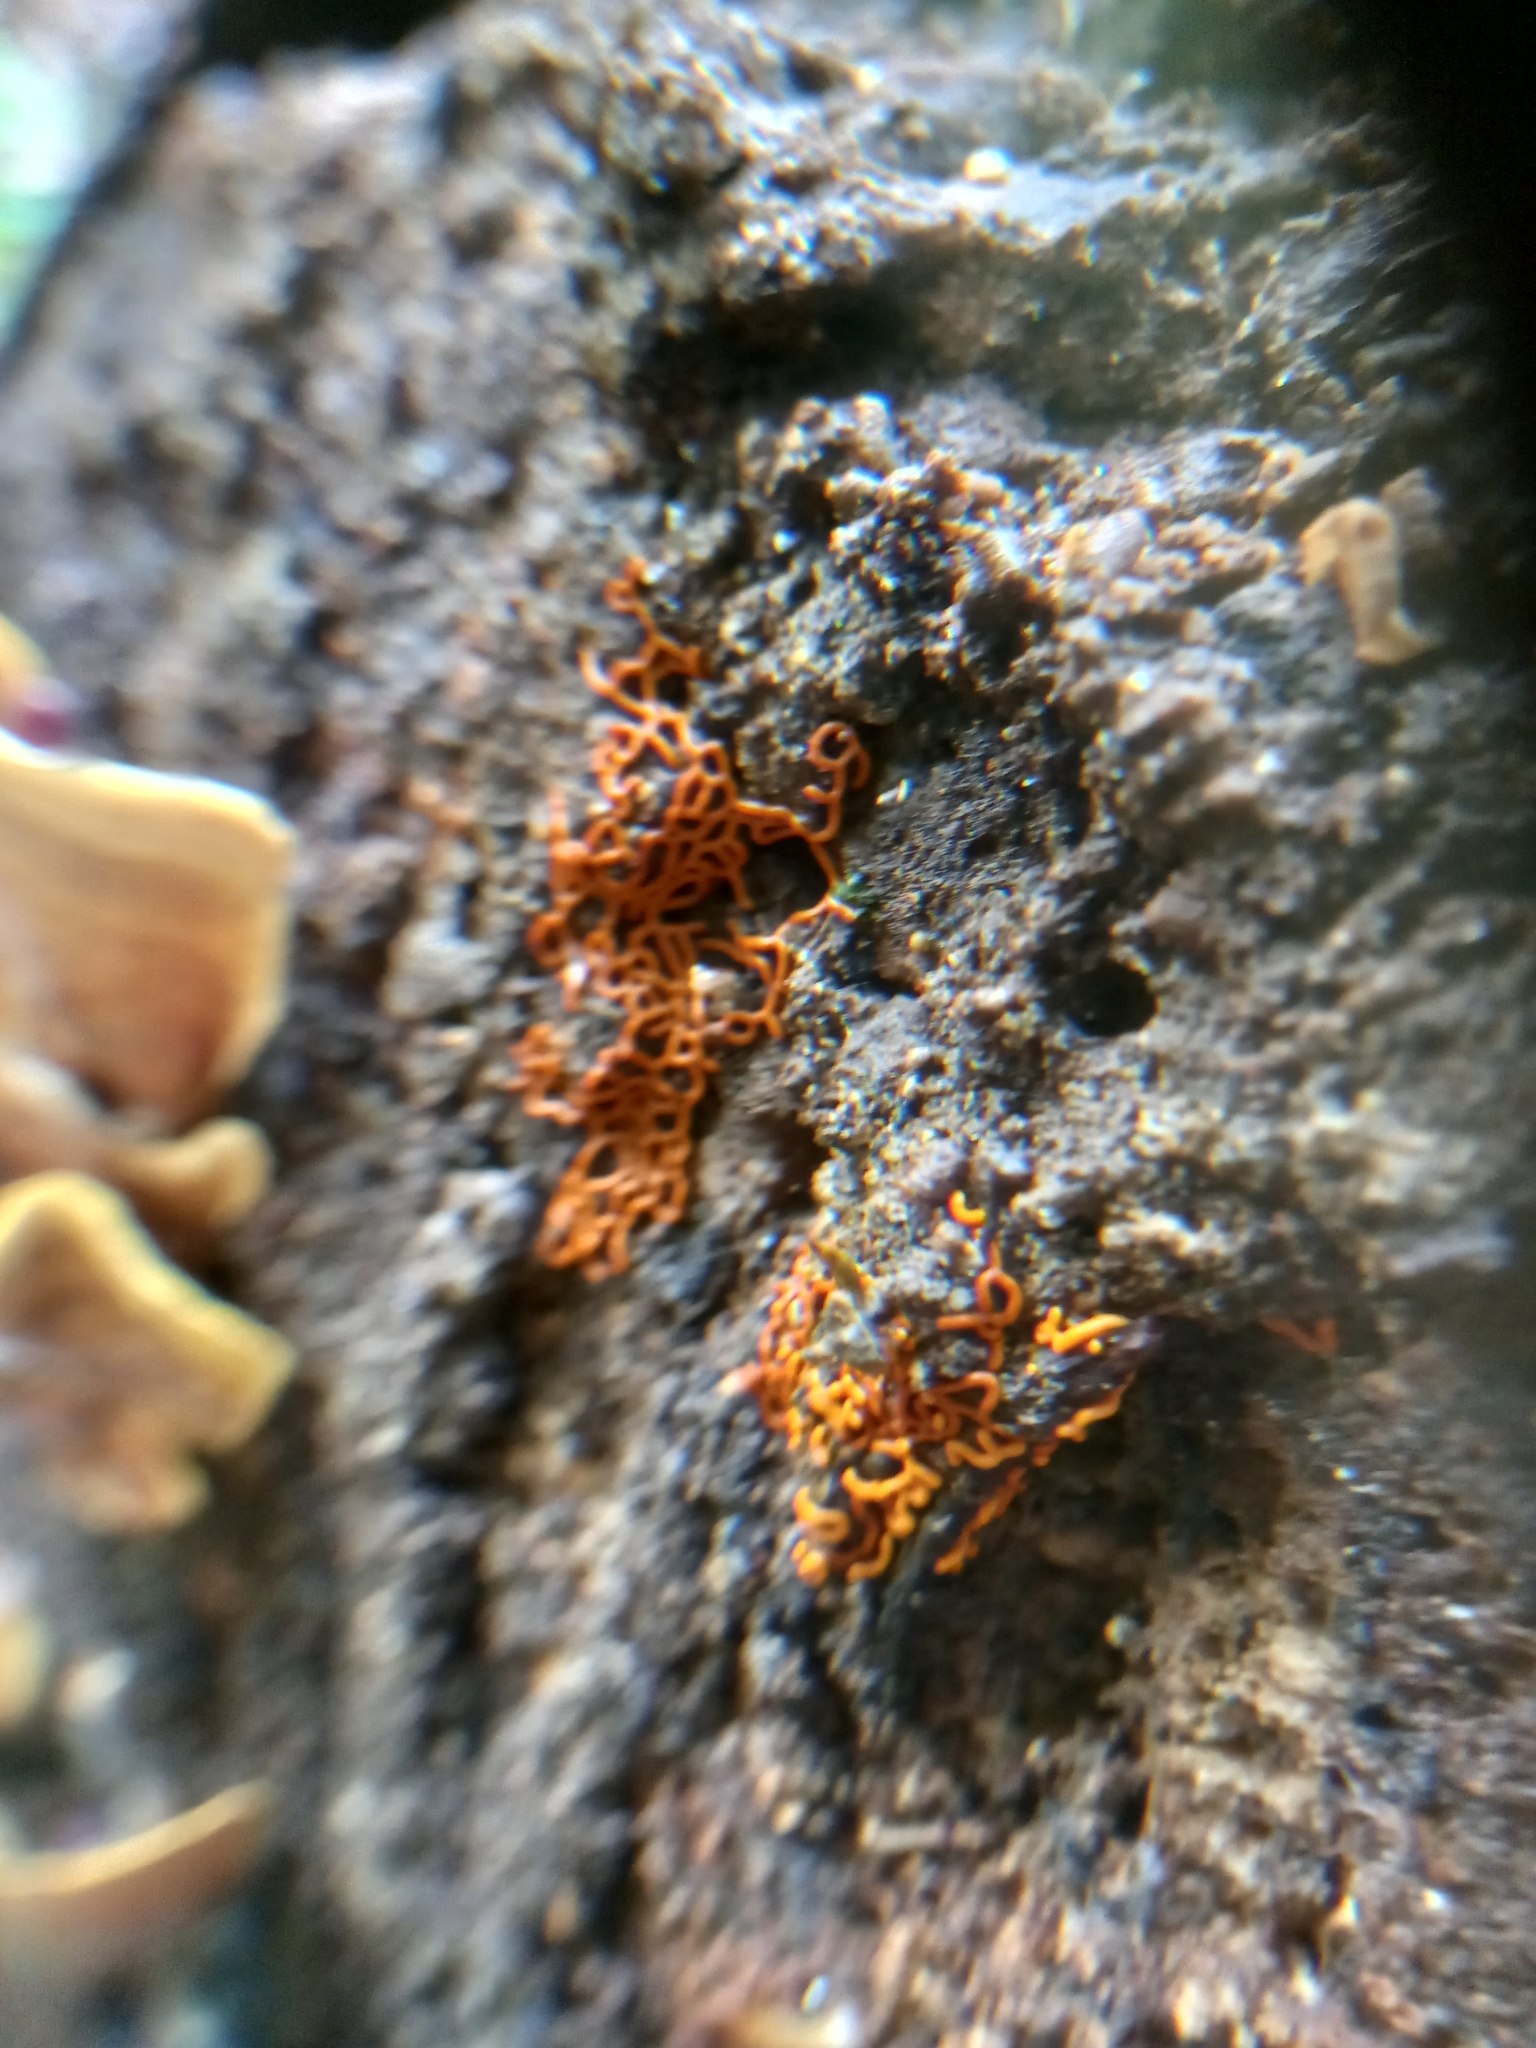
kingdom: Protozoa
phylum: Mycetozoa
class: Myxomycetes
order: Trichiales
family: Arcyriaceae
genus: Hemitrichia
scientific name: Hemitrichia serpula
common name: Pretzel slime mold
